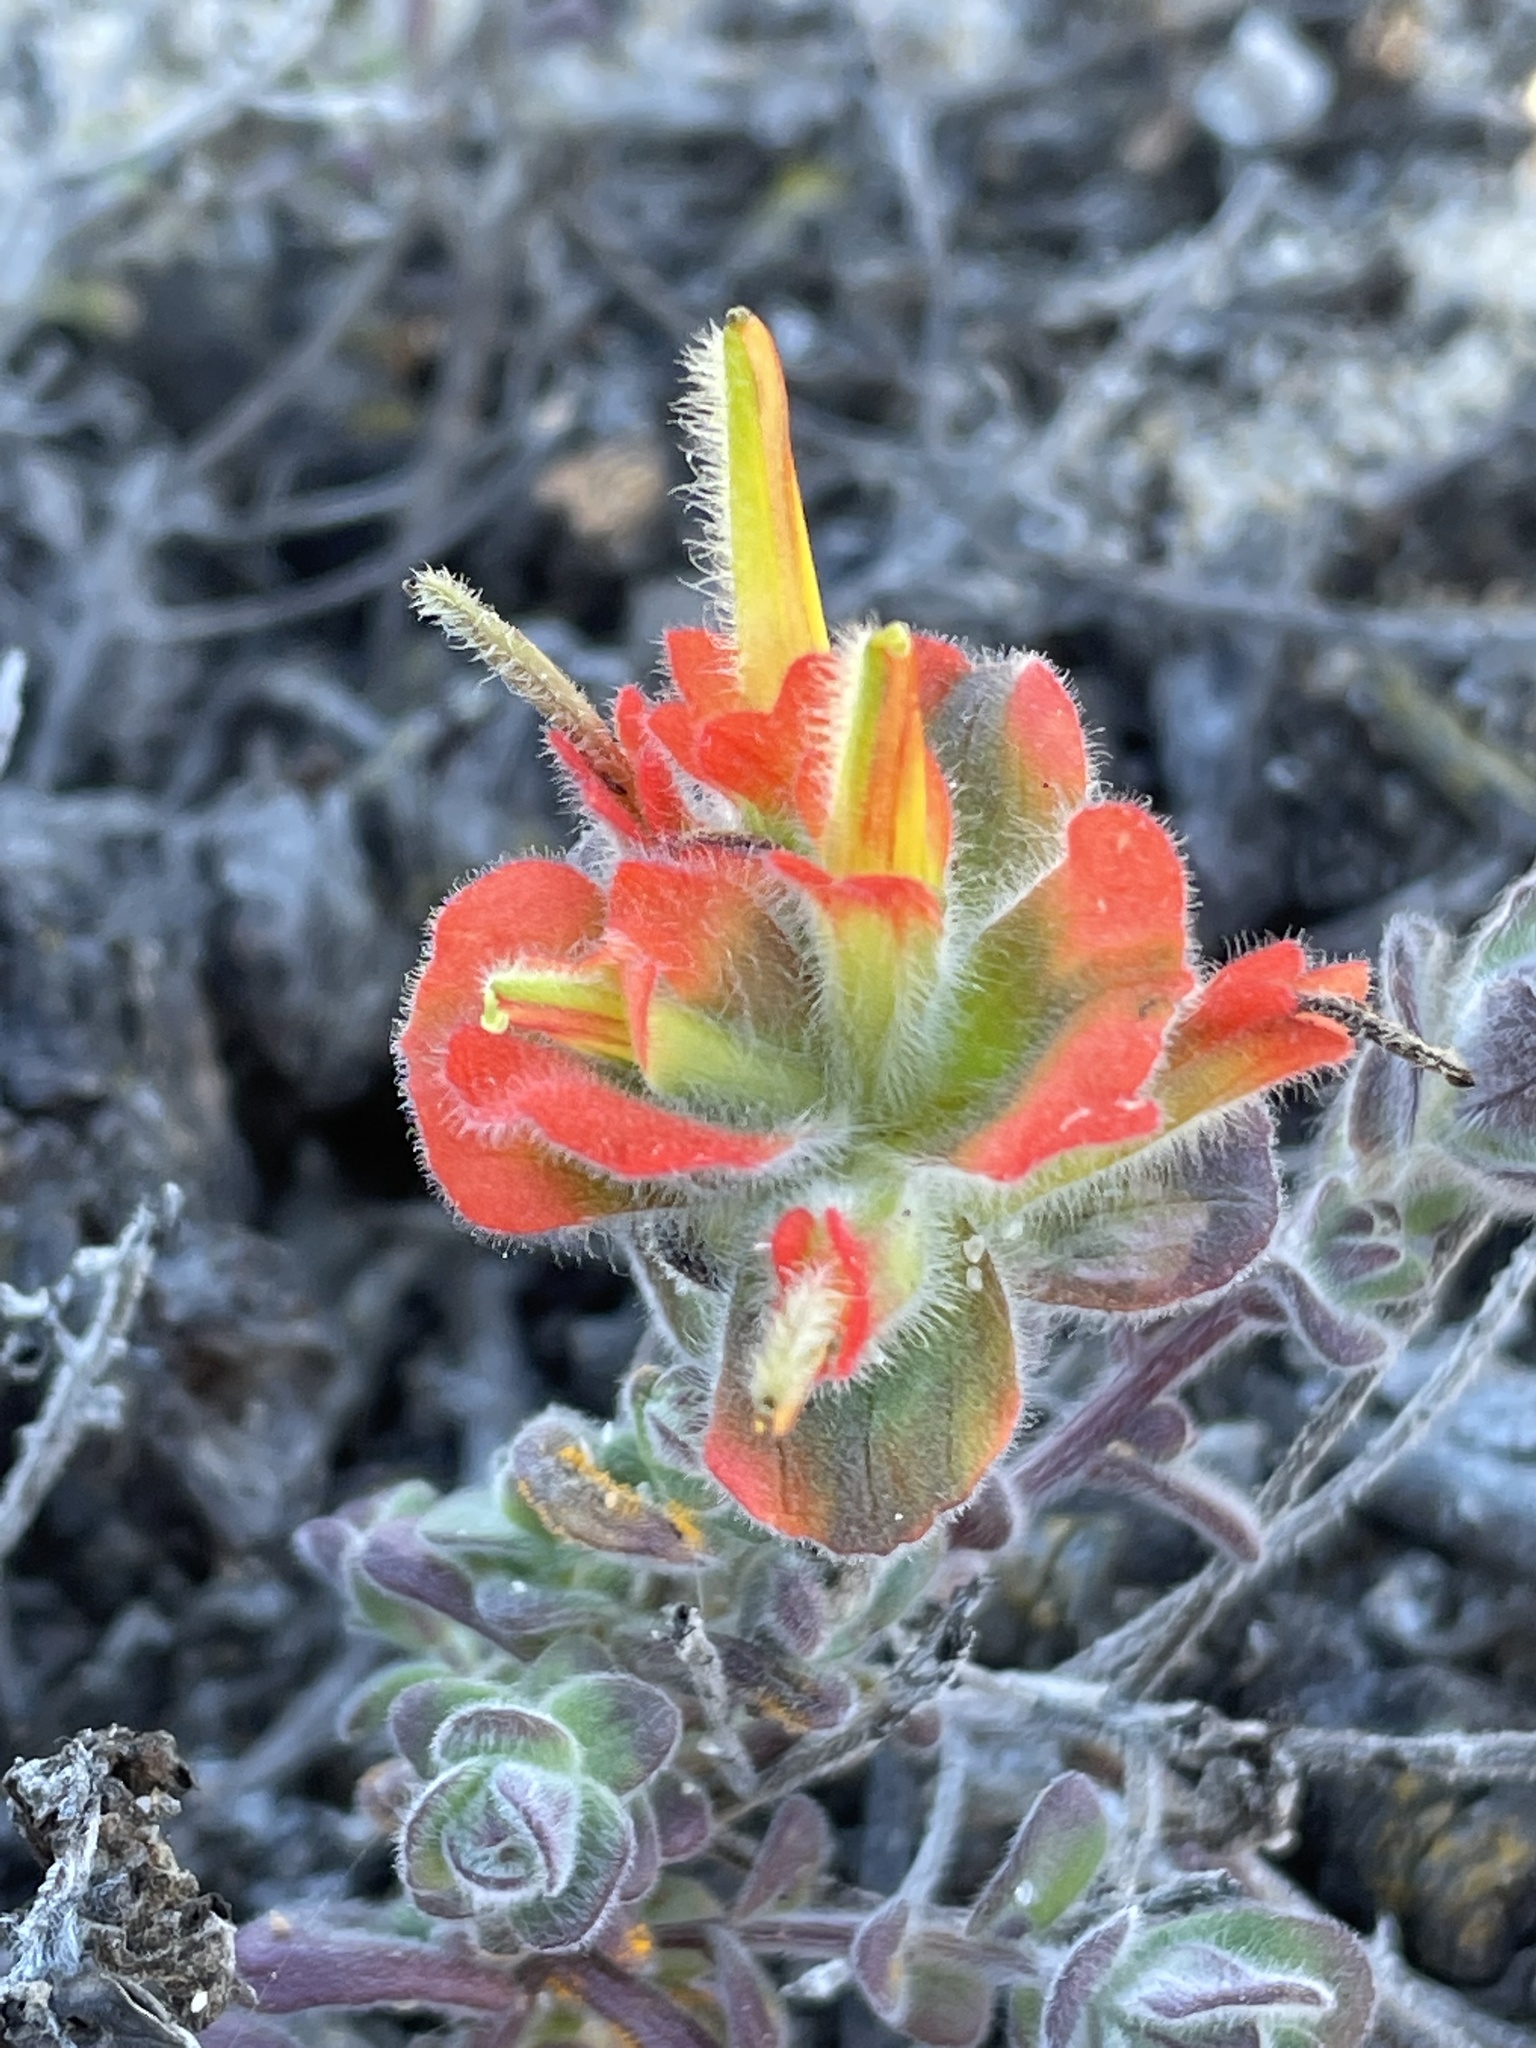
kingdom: Plantae
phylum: Tracheophyta
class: Magnoliopsida
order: Lamiales
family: Orobanchaceae
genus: Castilleja
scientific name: Castilleja latifolia
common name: Monterey indian paintbrush
